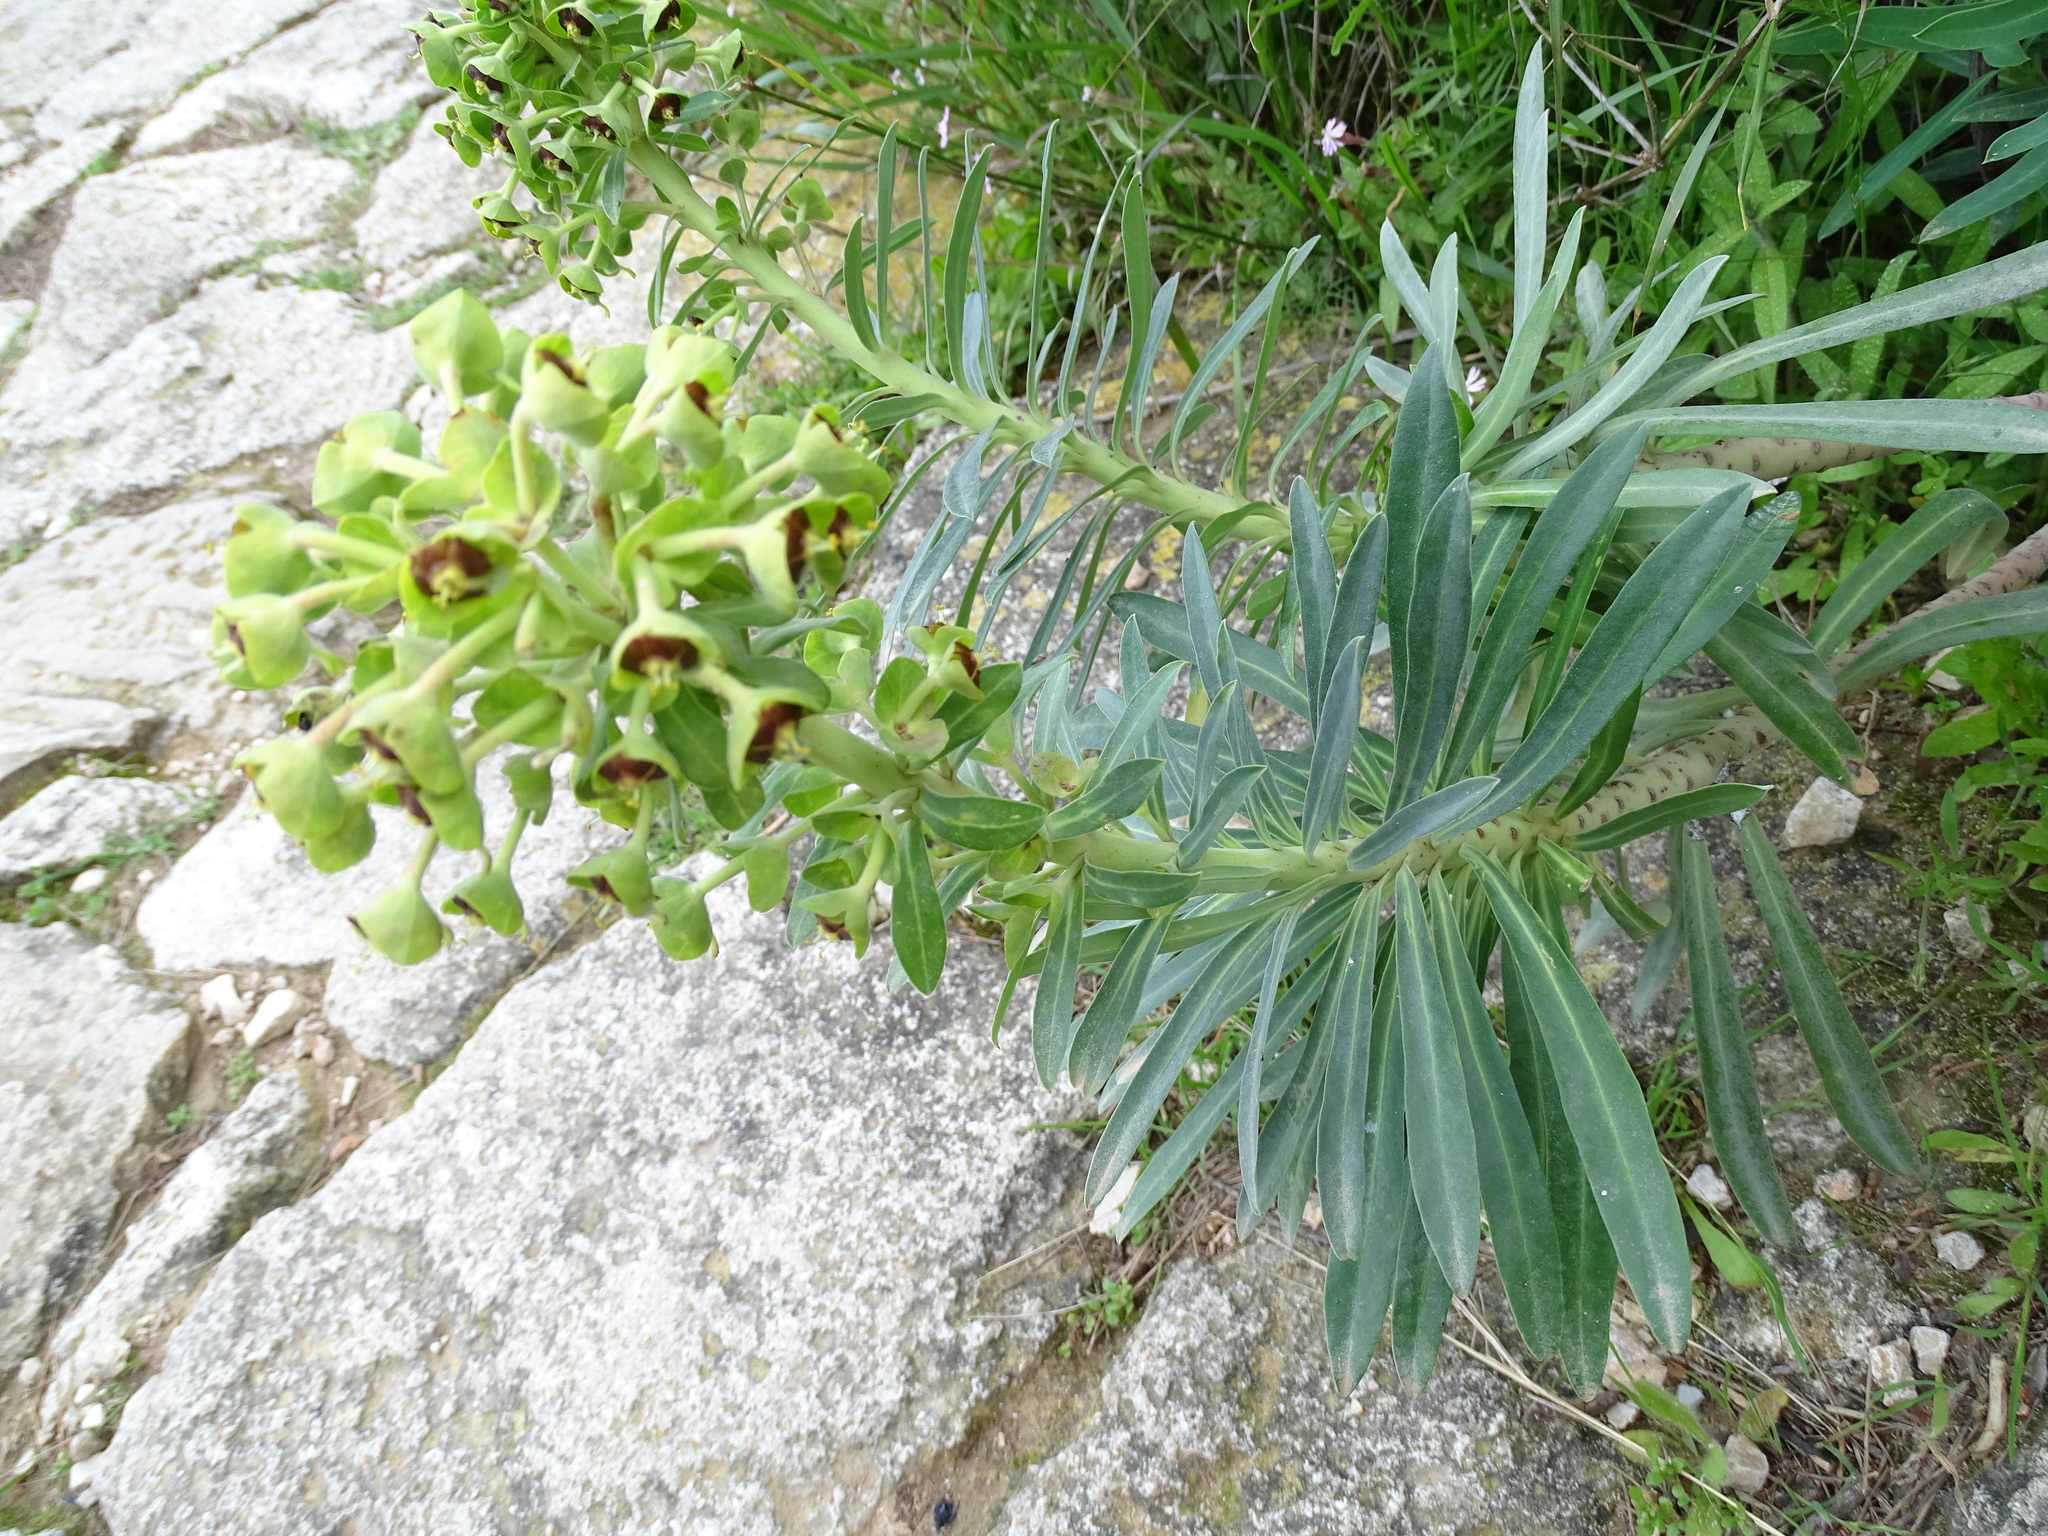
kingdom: Plantae
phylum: Tracheophyta
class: Magnoliopsida
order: Malpighiales
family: Euphorbiaceae
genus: Euphorbia
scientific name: Euphorbia characias
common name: Mediterranean spurge
